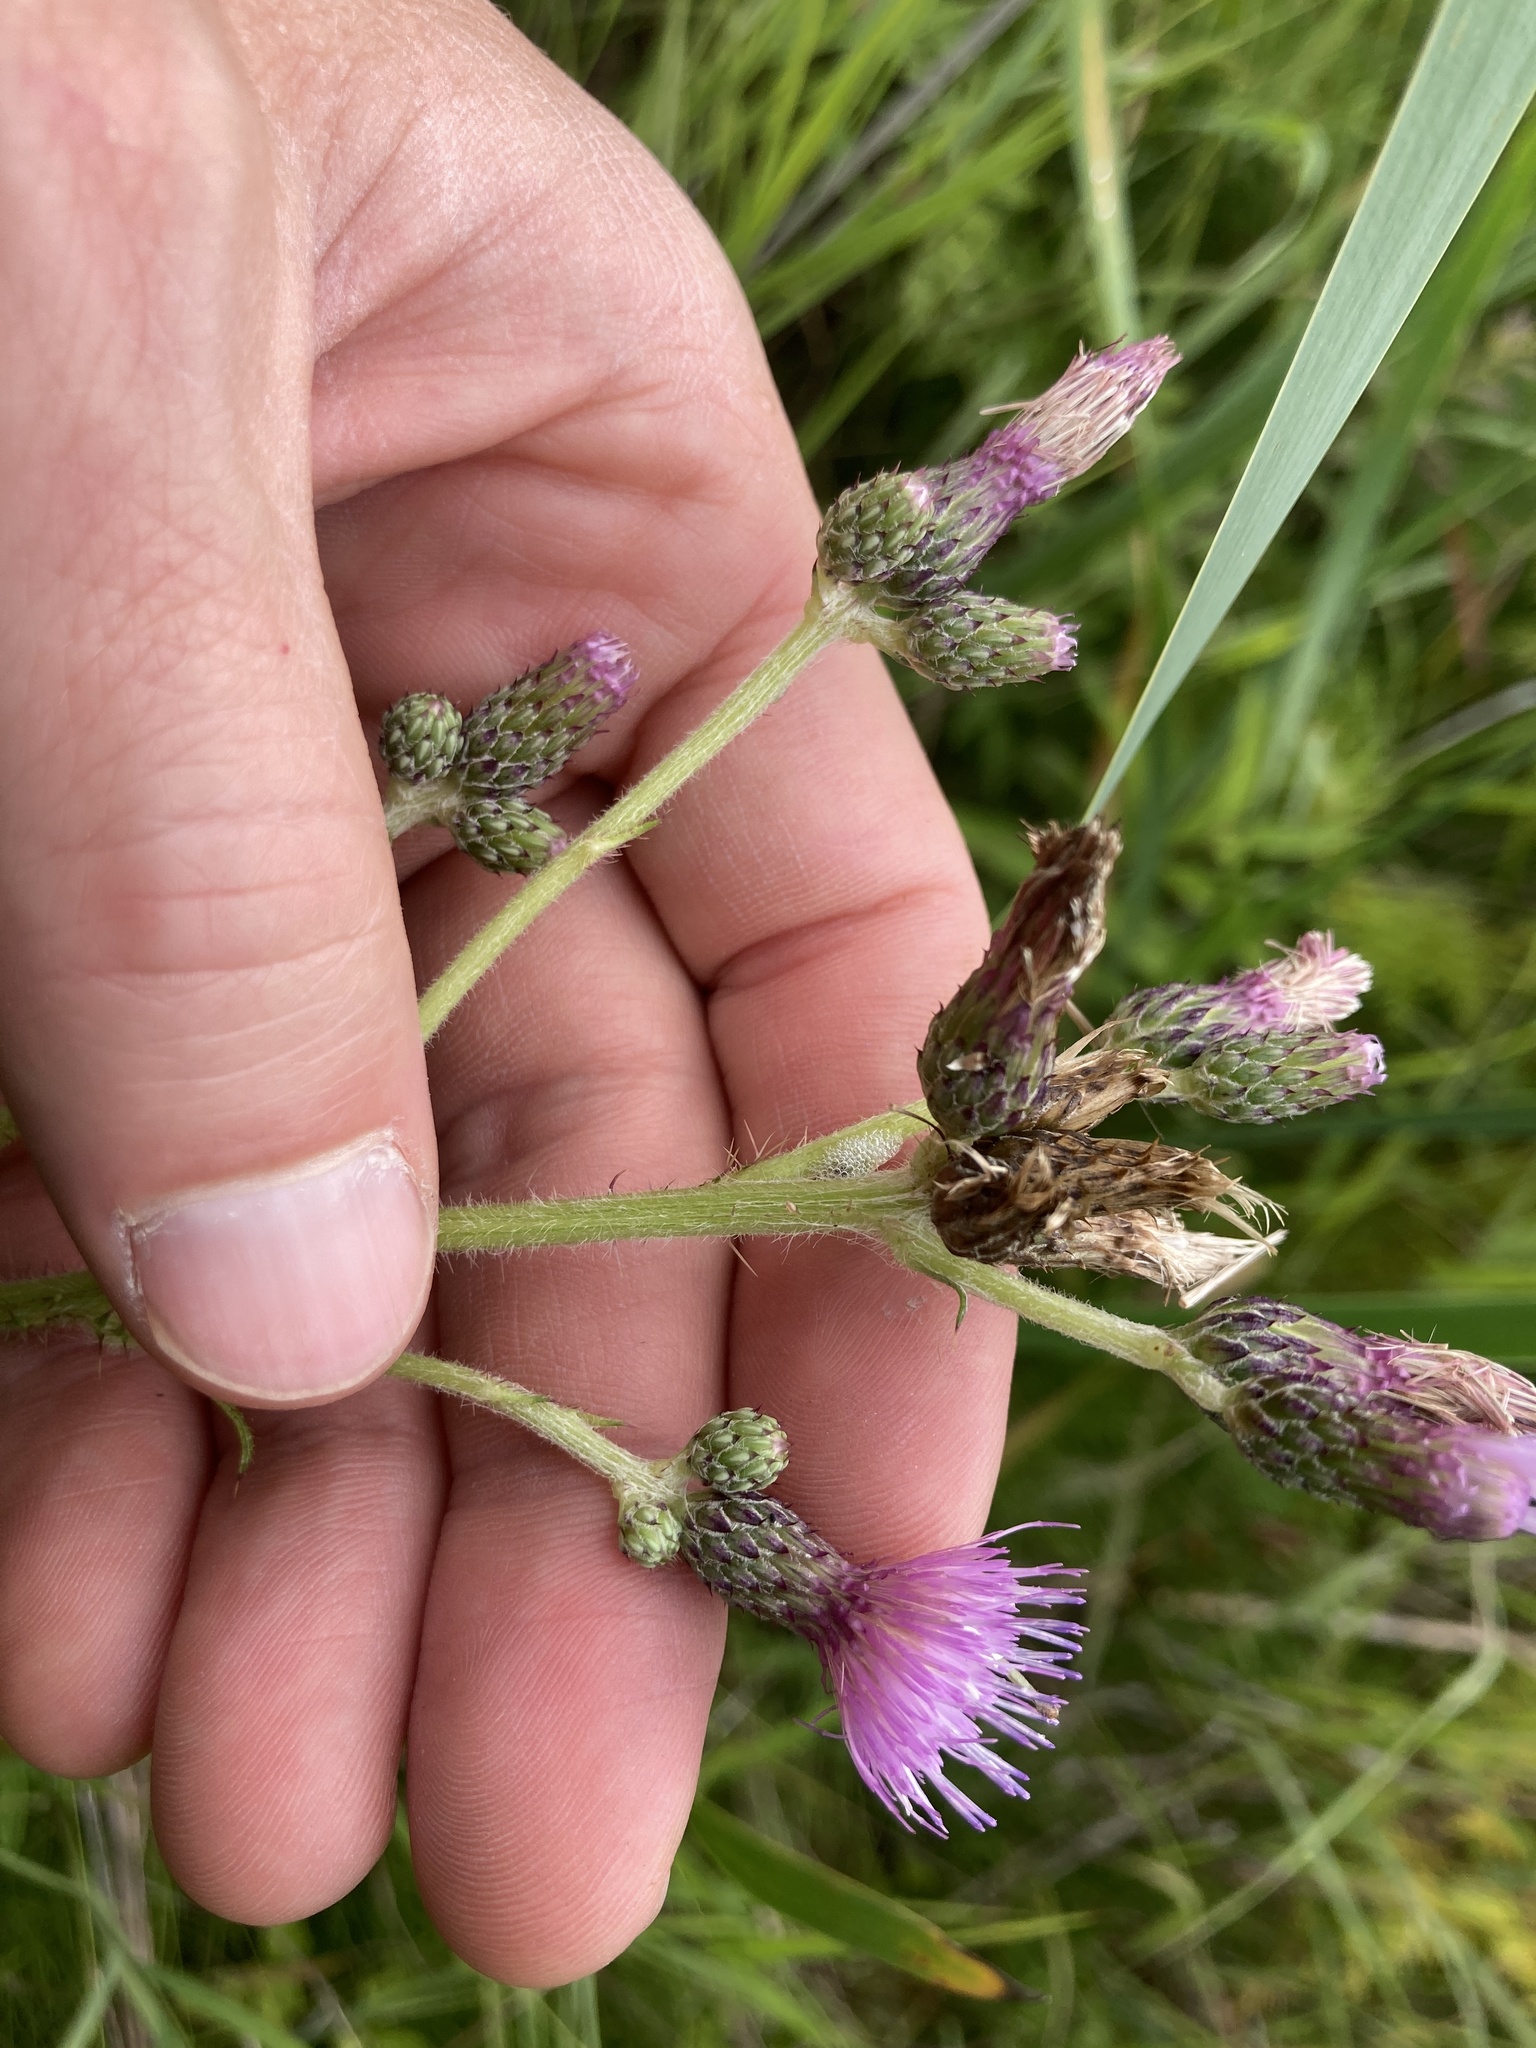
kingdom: Plantae
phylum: Tracheophyta
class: Magnoliopsida
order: Asterales
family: Asteraceae
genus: Cirsium
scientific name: Cirsium arvense
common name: Creeping thistle
